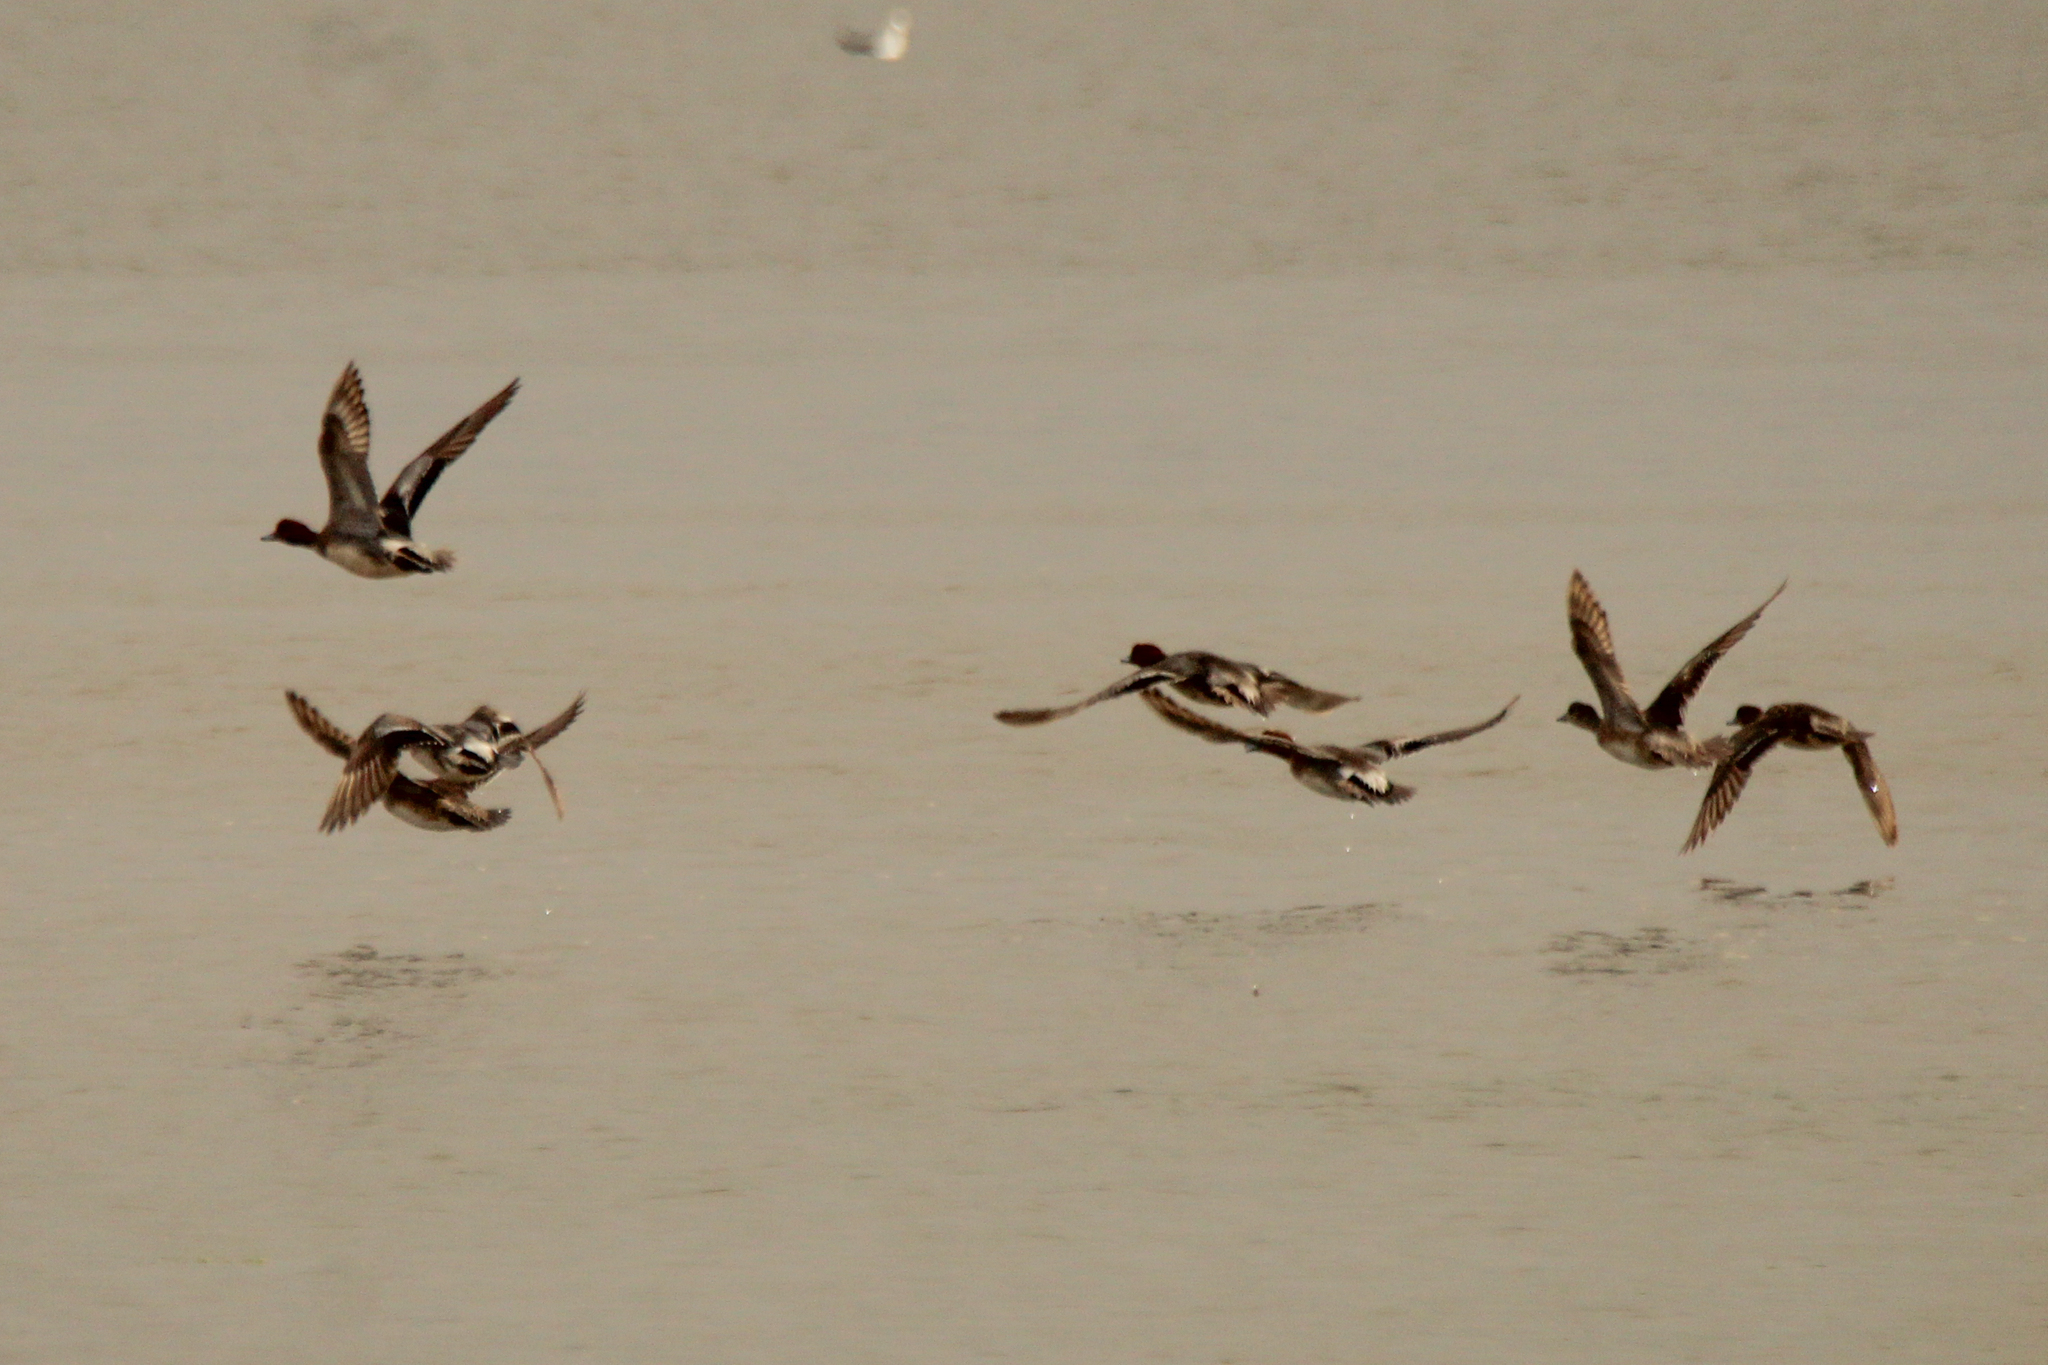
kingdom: Animalia
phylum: Chordata
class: Aves
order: Anseriformes
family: Anatidae
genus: Mareca
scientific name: Mareca penelope
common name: Eurasian wigeon
